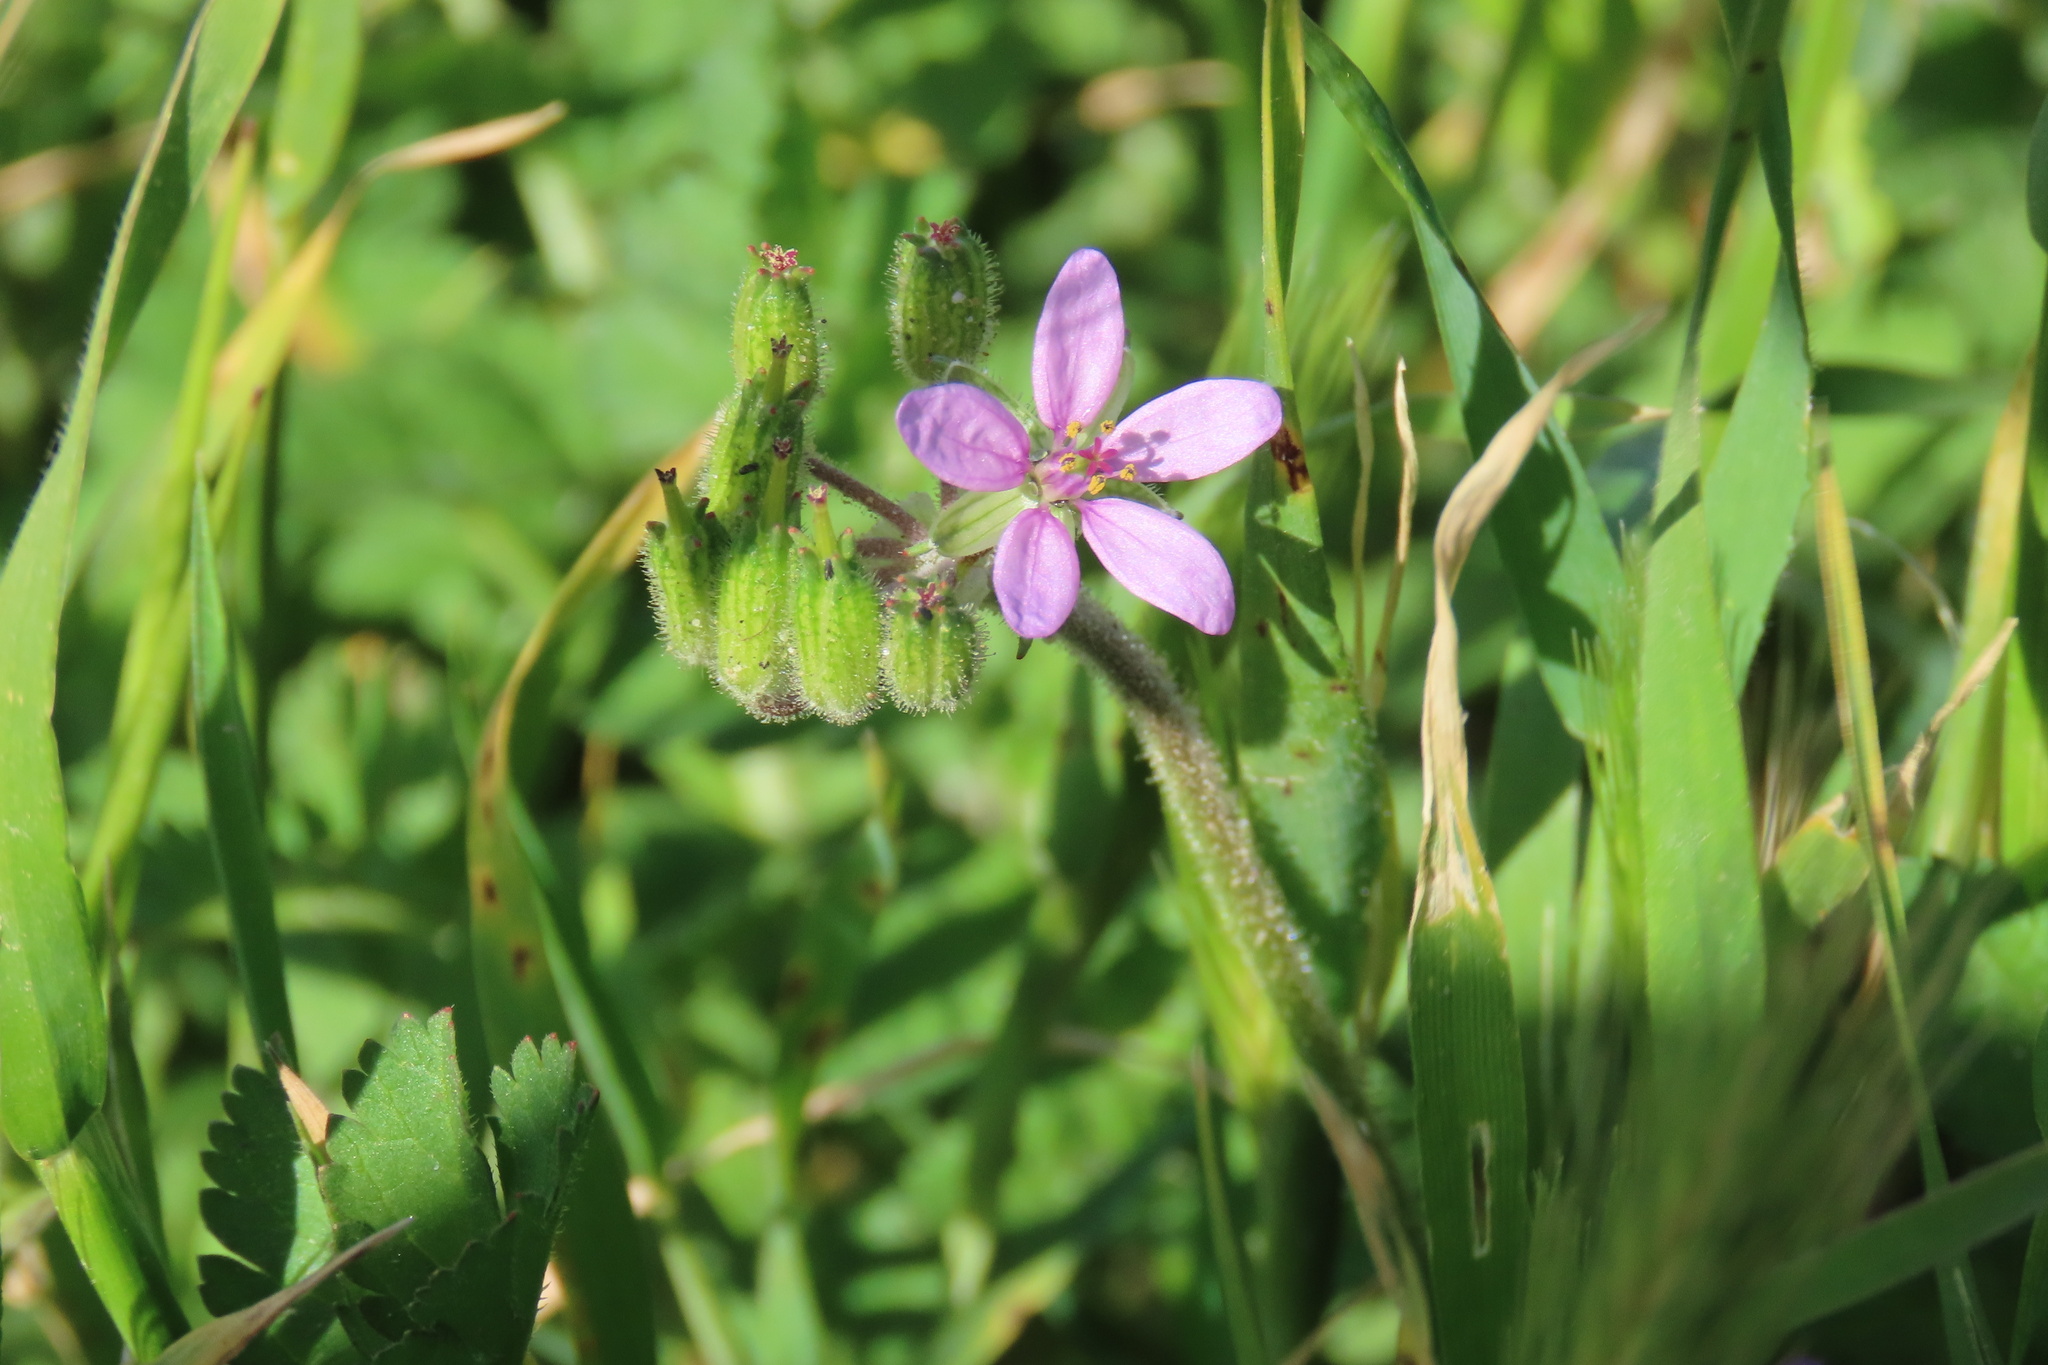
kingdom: Plantae
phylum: Tracheophyta
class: Magnoliopsida
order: Geraniales
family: Geraniaceae
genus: Erodium
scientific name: Erodium moschatum
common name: Musk stork's-bill
